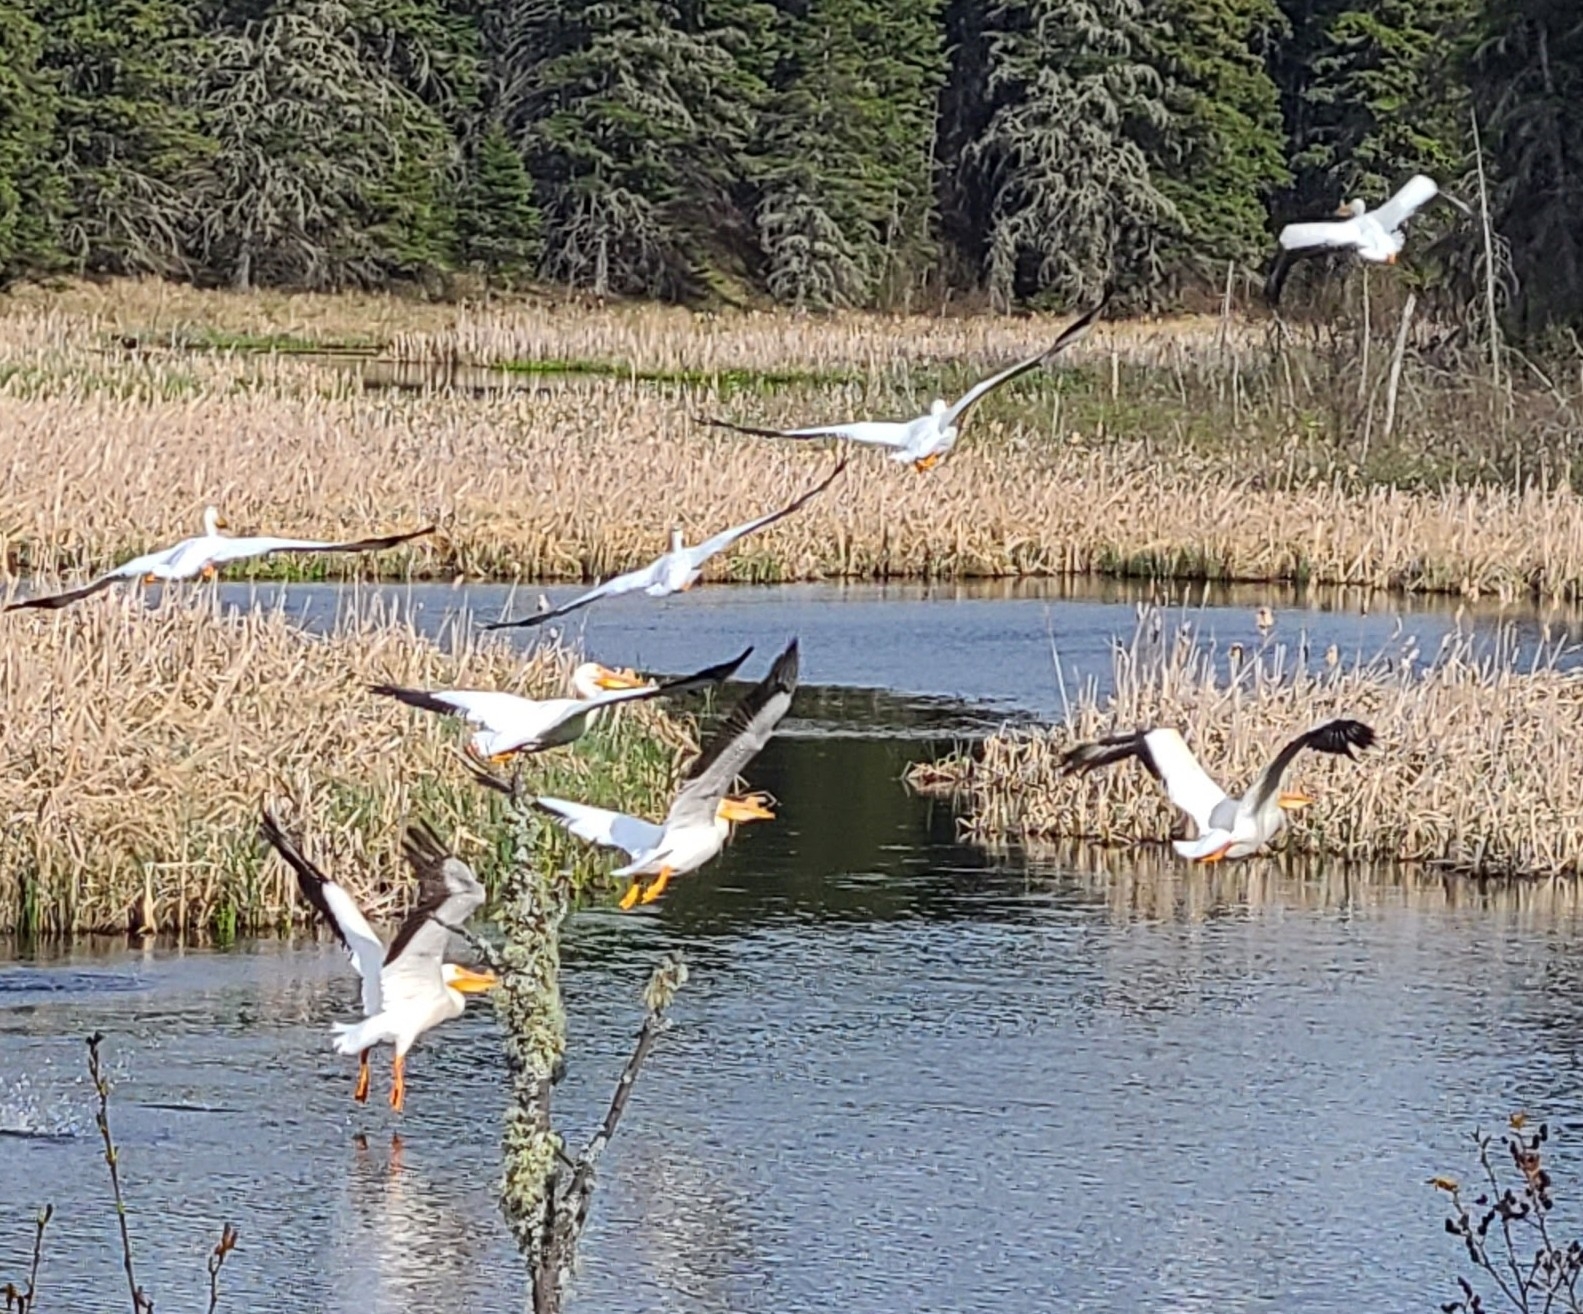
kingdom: Animalia
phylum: Chordata
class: Aves
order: Pelecaniformes
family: Pelecanidae
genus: Pelecanus
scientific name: Pelecanus erythrorhynchos
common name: American white pelican
